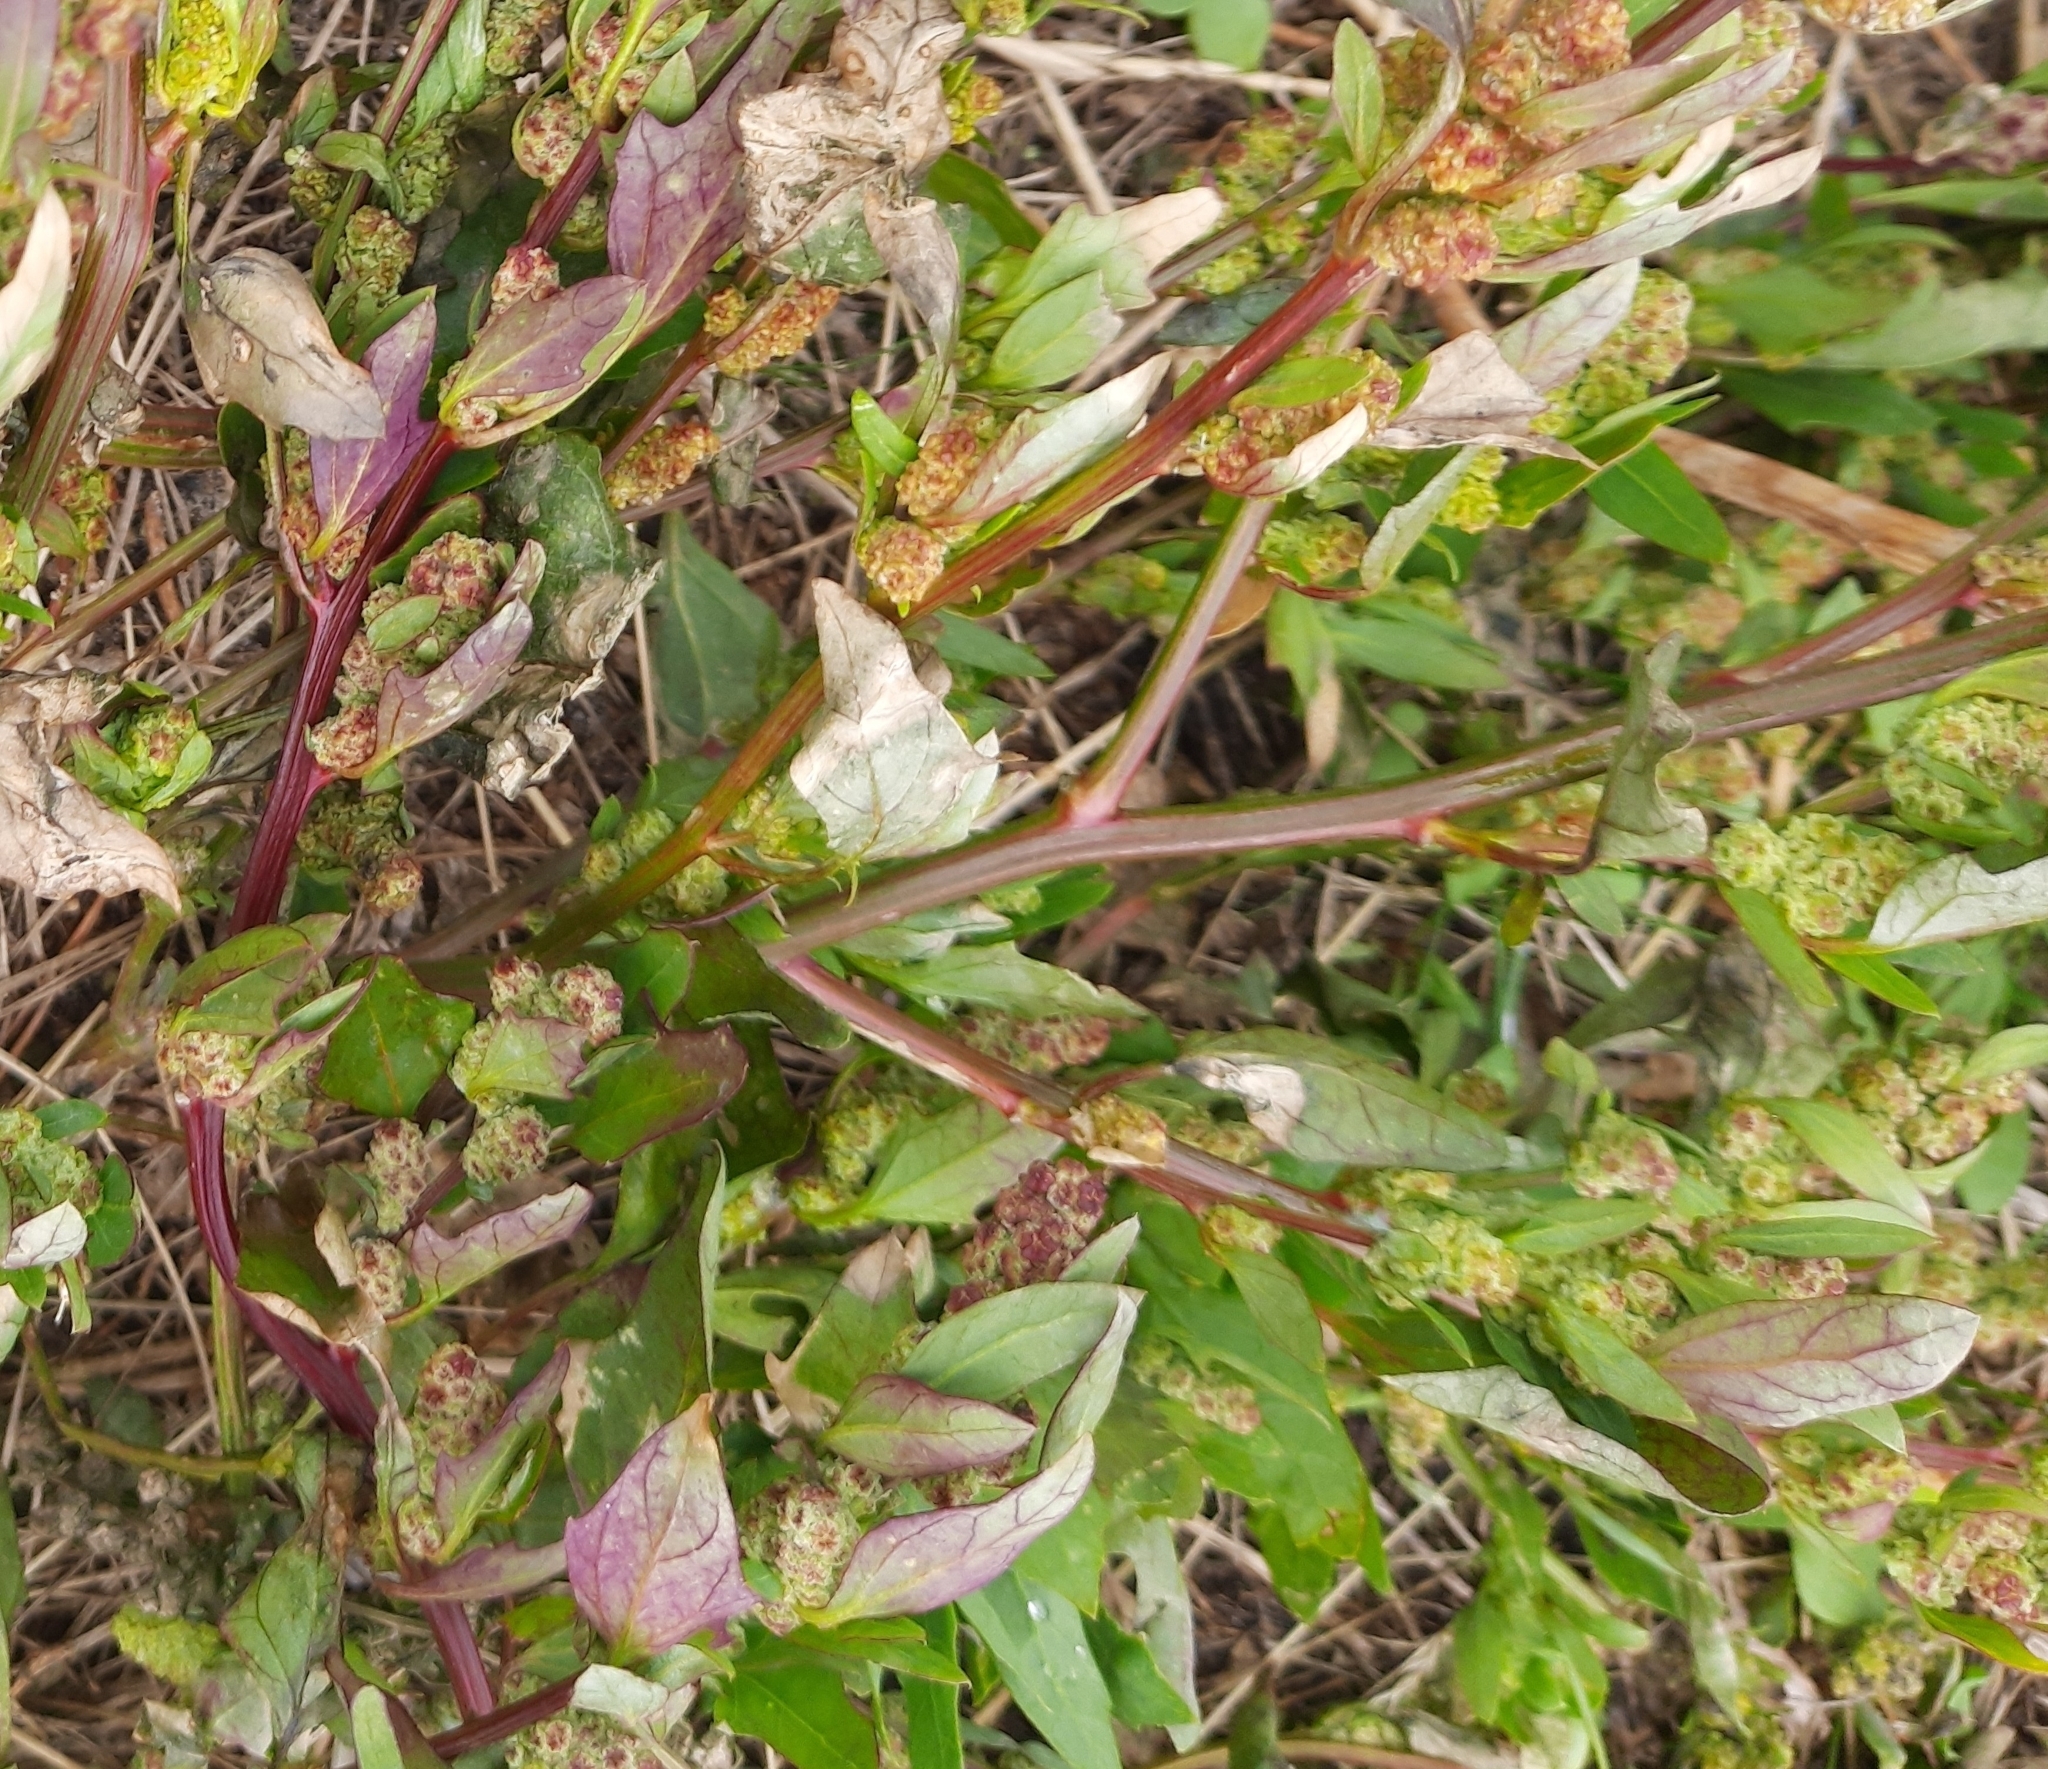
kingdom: Plantae
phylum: Tracheophyta
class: Magnoliopsida
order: Caryophyllales
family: Amaranthaceae
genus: Oxybasis
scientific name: Oxybasis glauca
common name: Glaucous goosefoot
